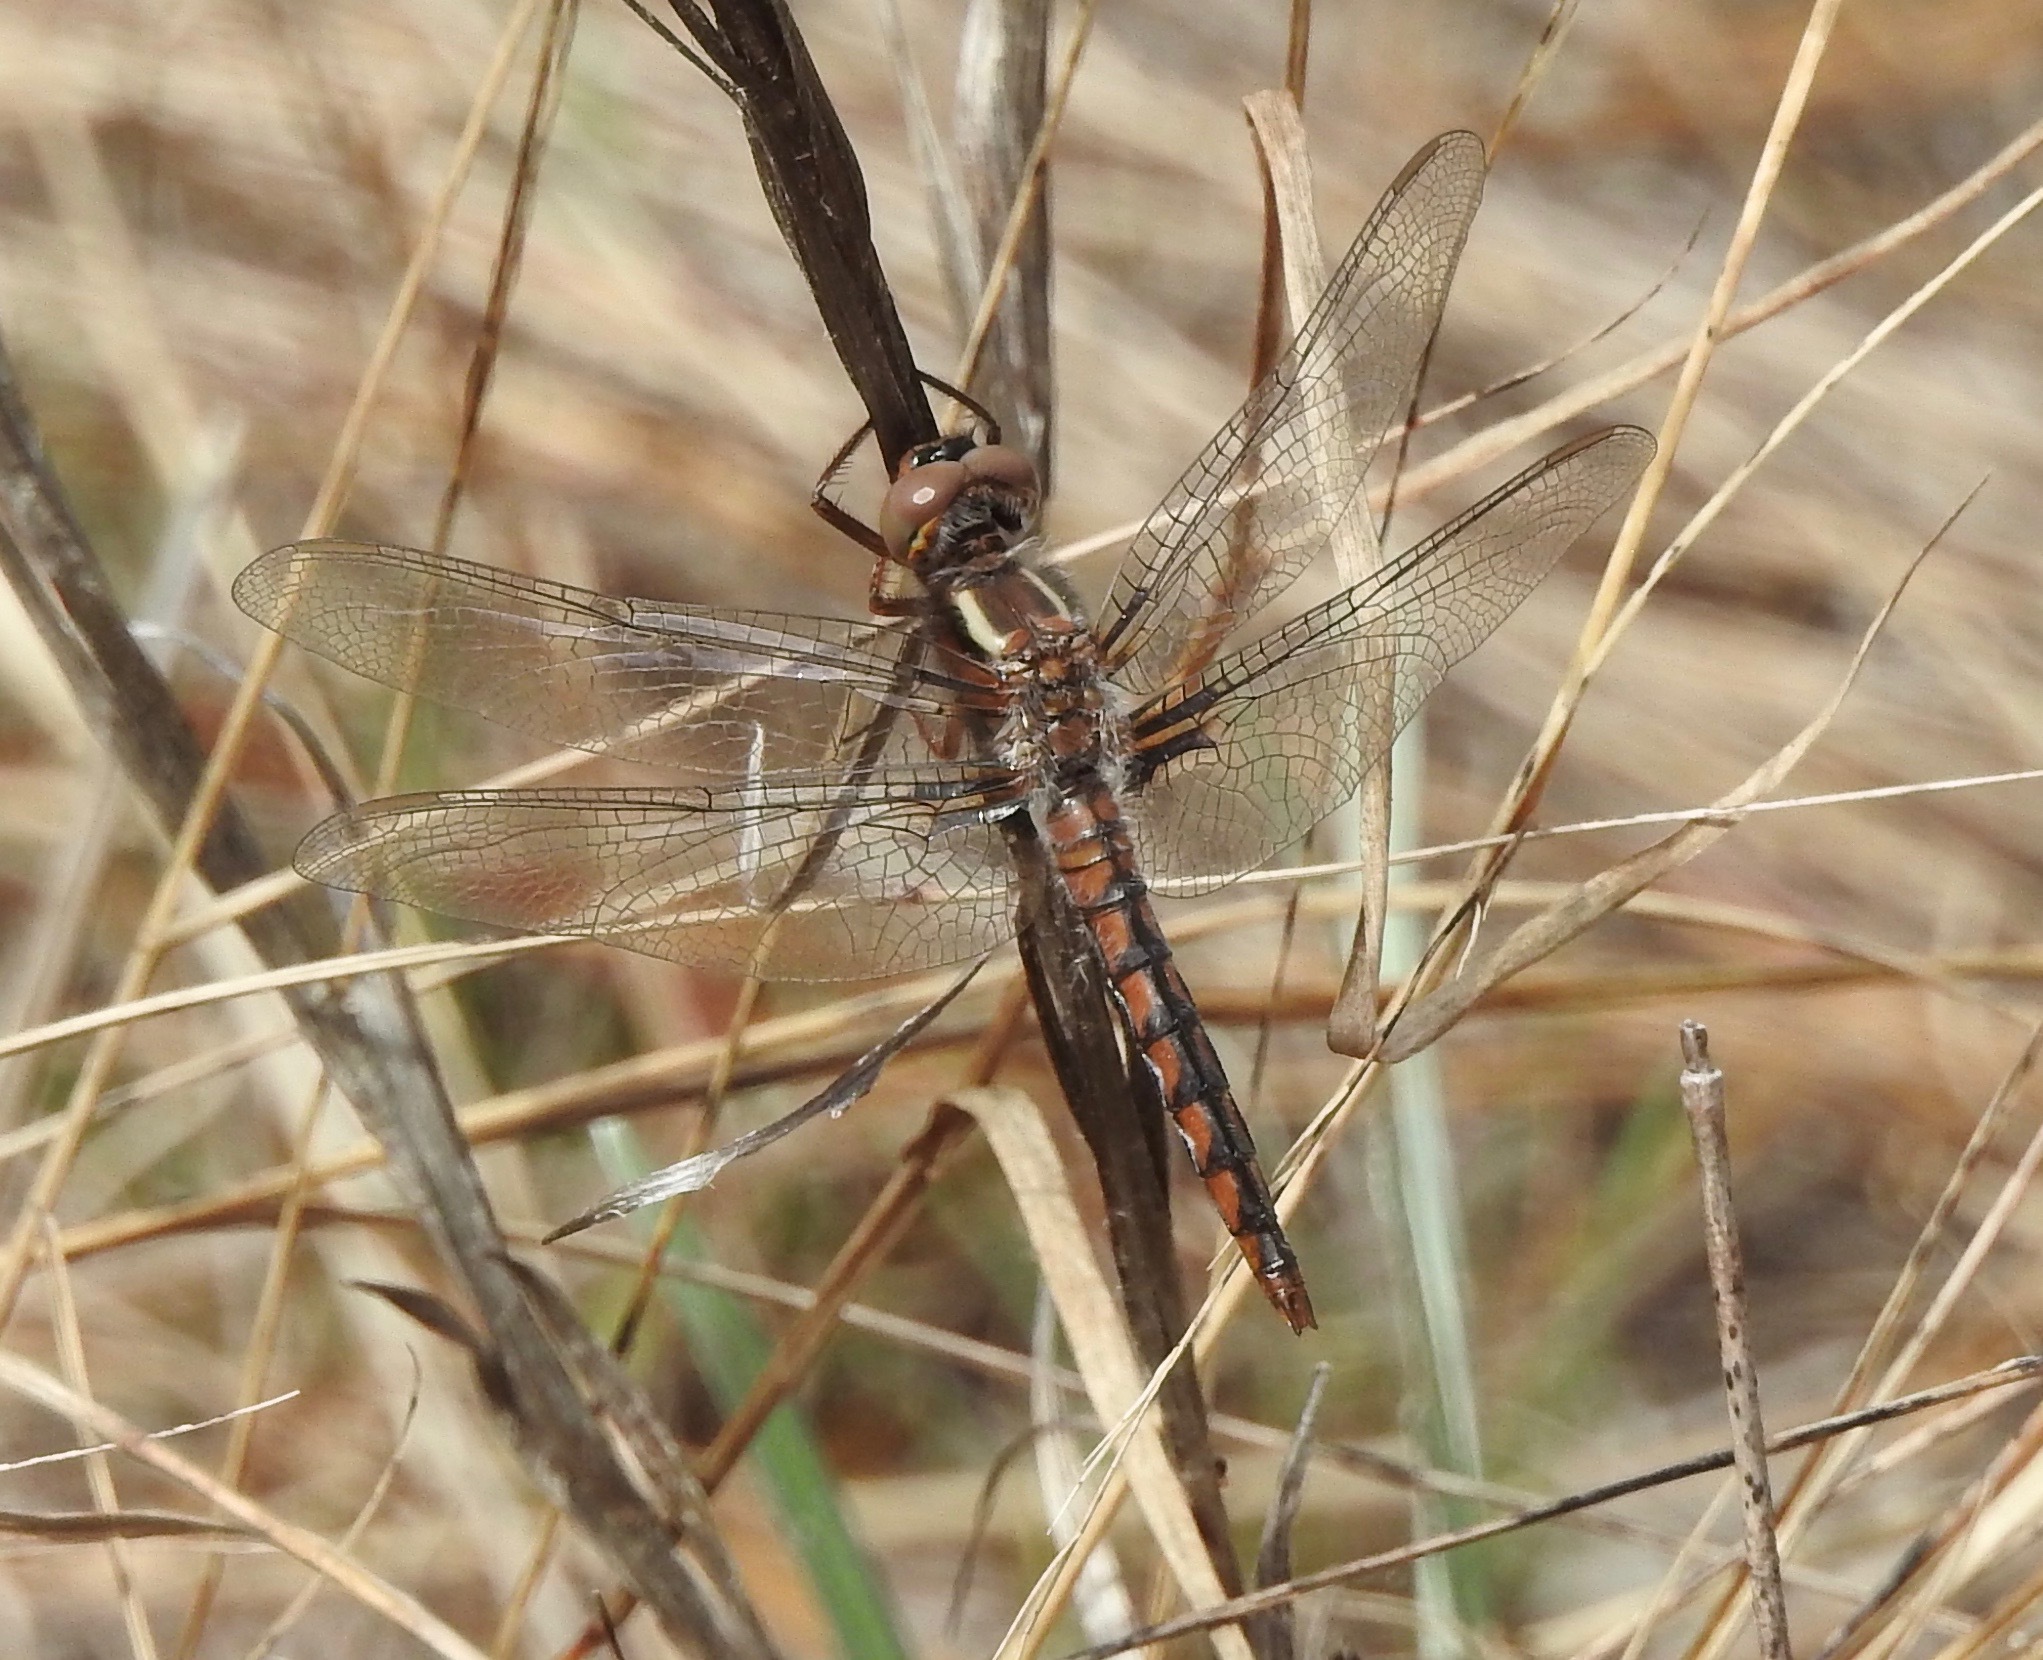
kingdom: Animalia
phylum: Arthropoda
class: Insecta
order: Odonata
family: Libellulidae
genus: Ladona
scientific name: Ladona deplanata
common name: Blue corporal
